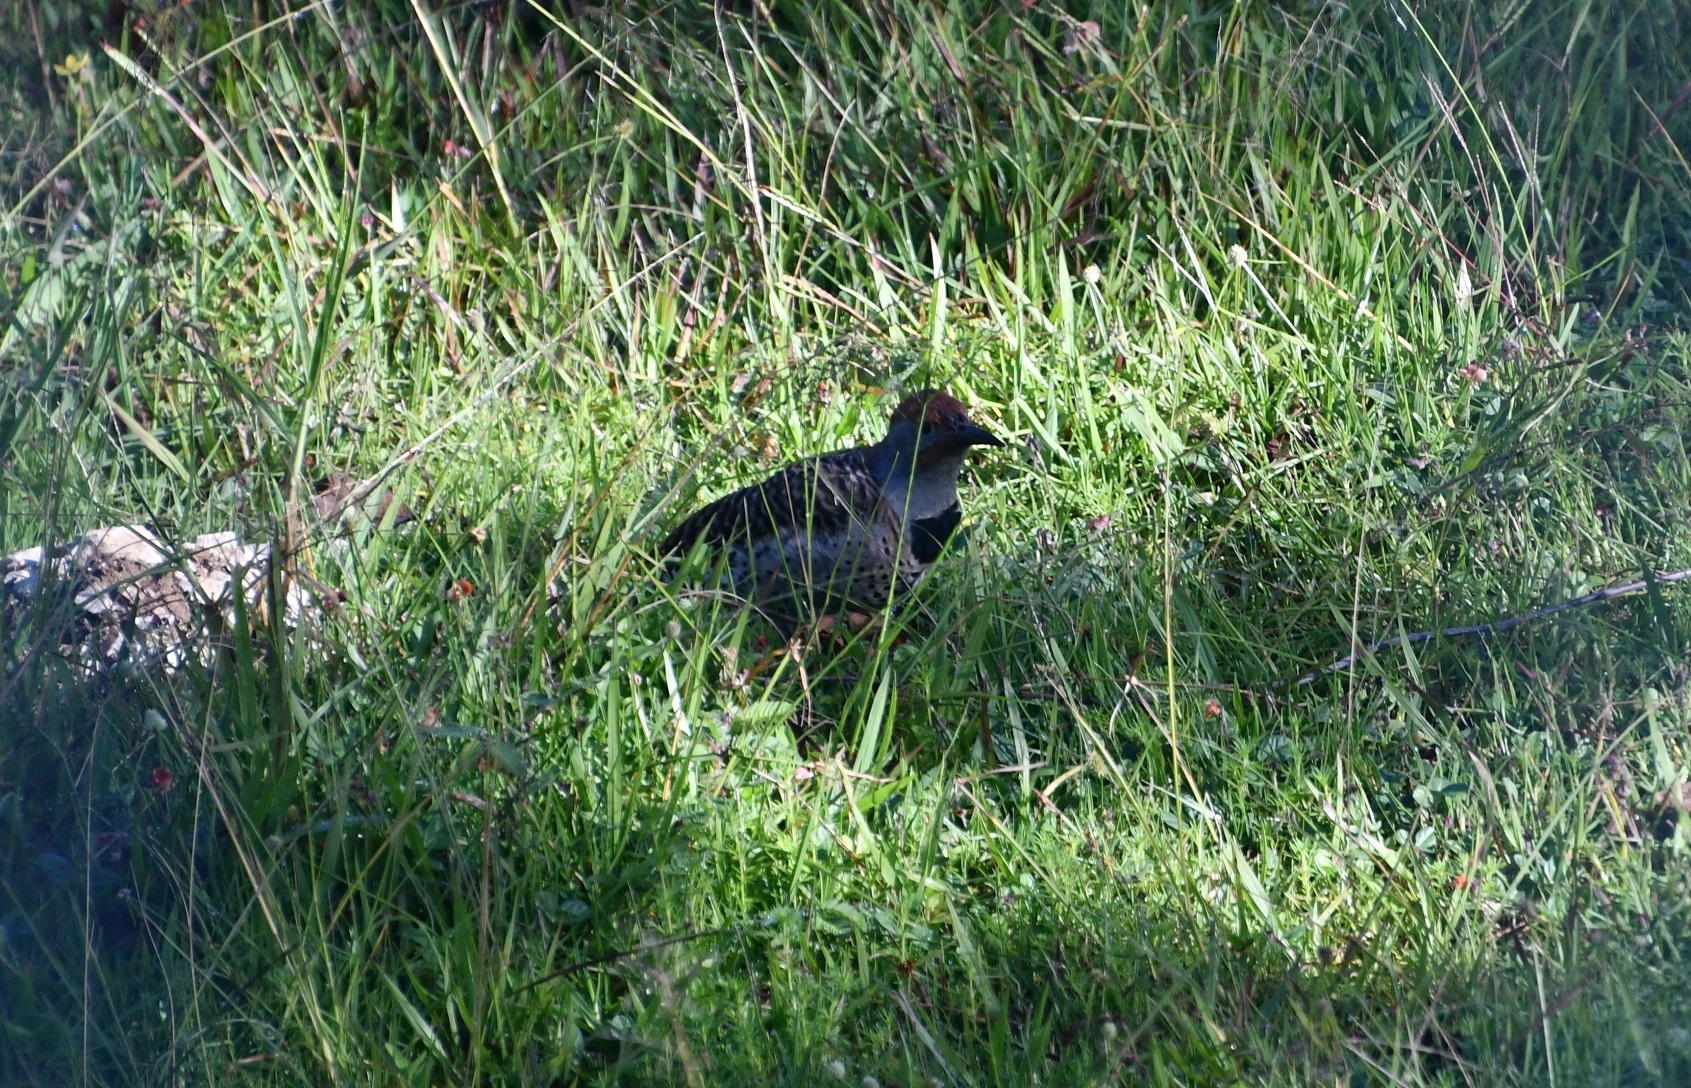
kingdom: Animalia
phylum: Chordata
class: Aves
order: Piciformes
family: Picidae
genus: Colaptes
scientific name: Colaptes auratus
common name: Northern flicker
